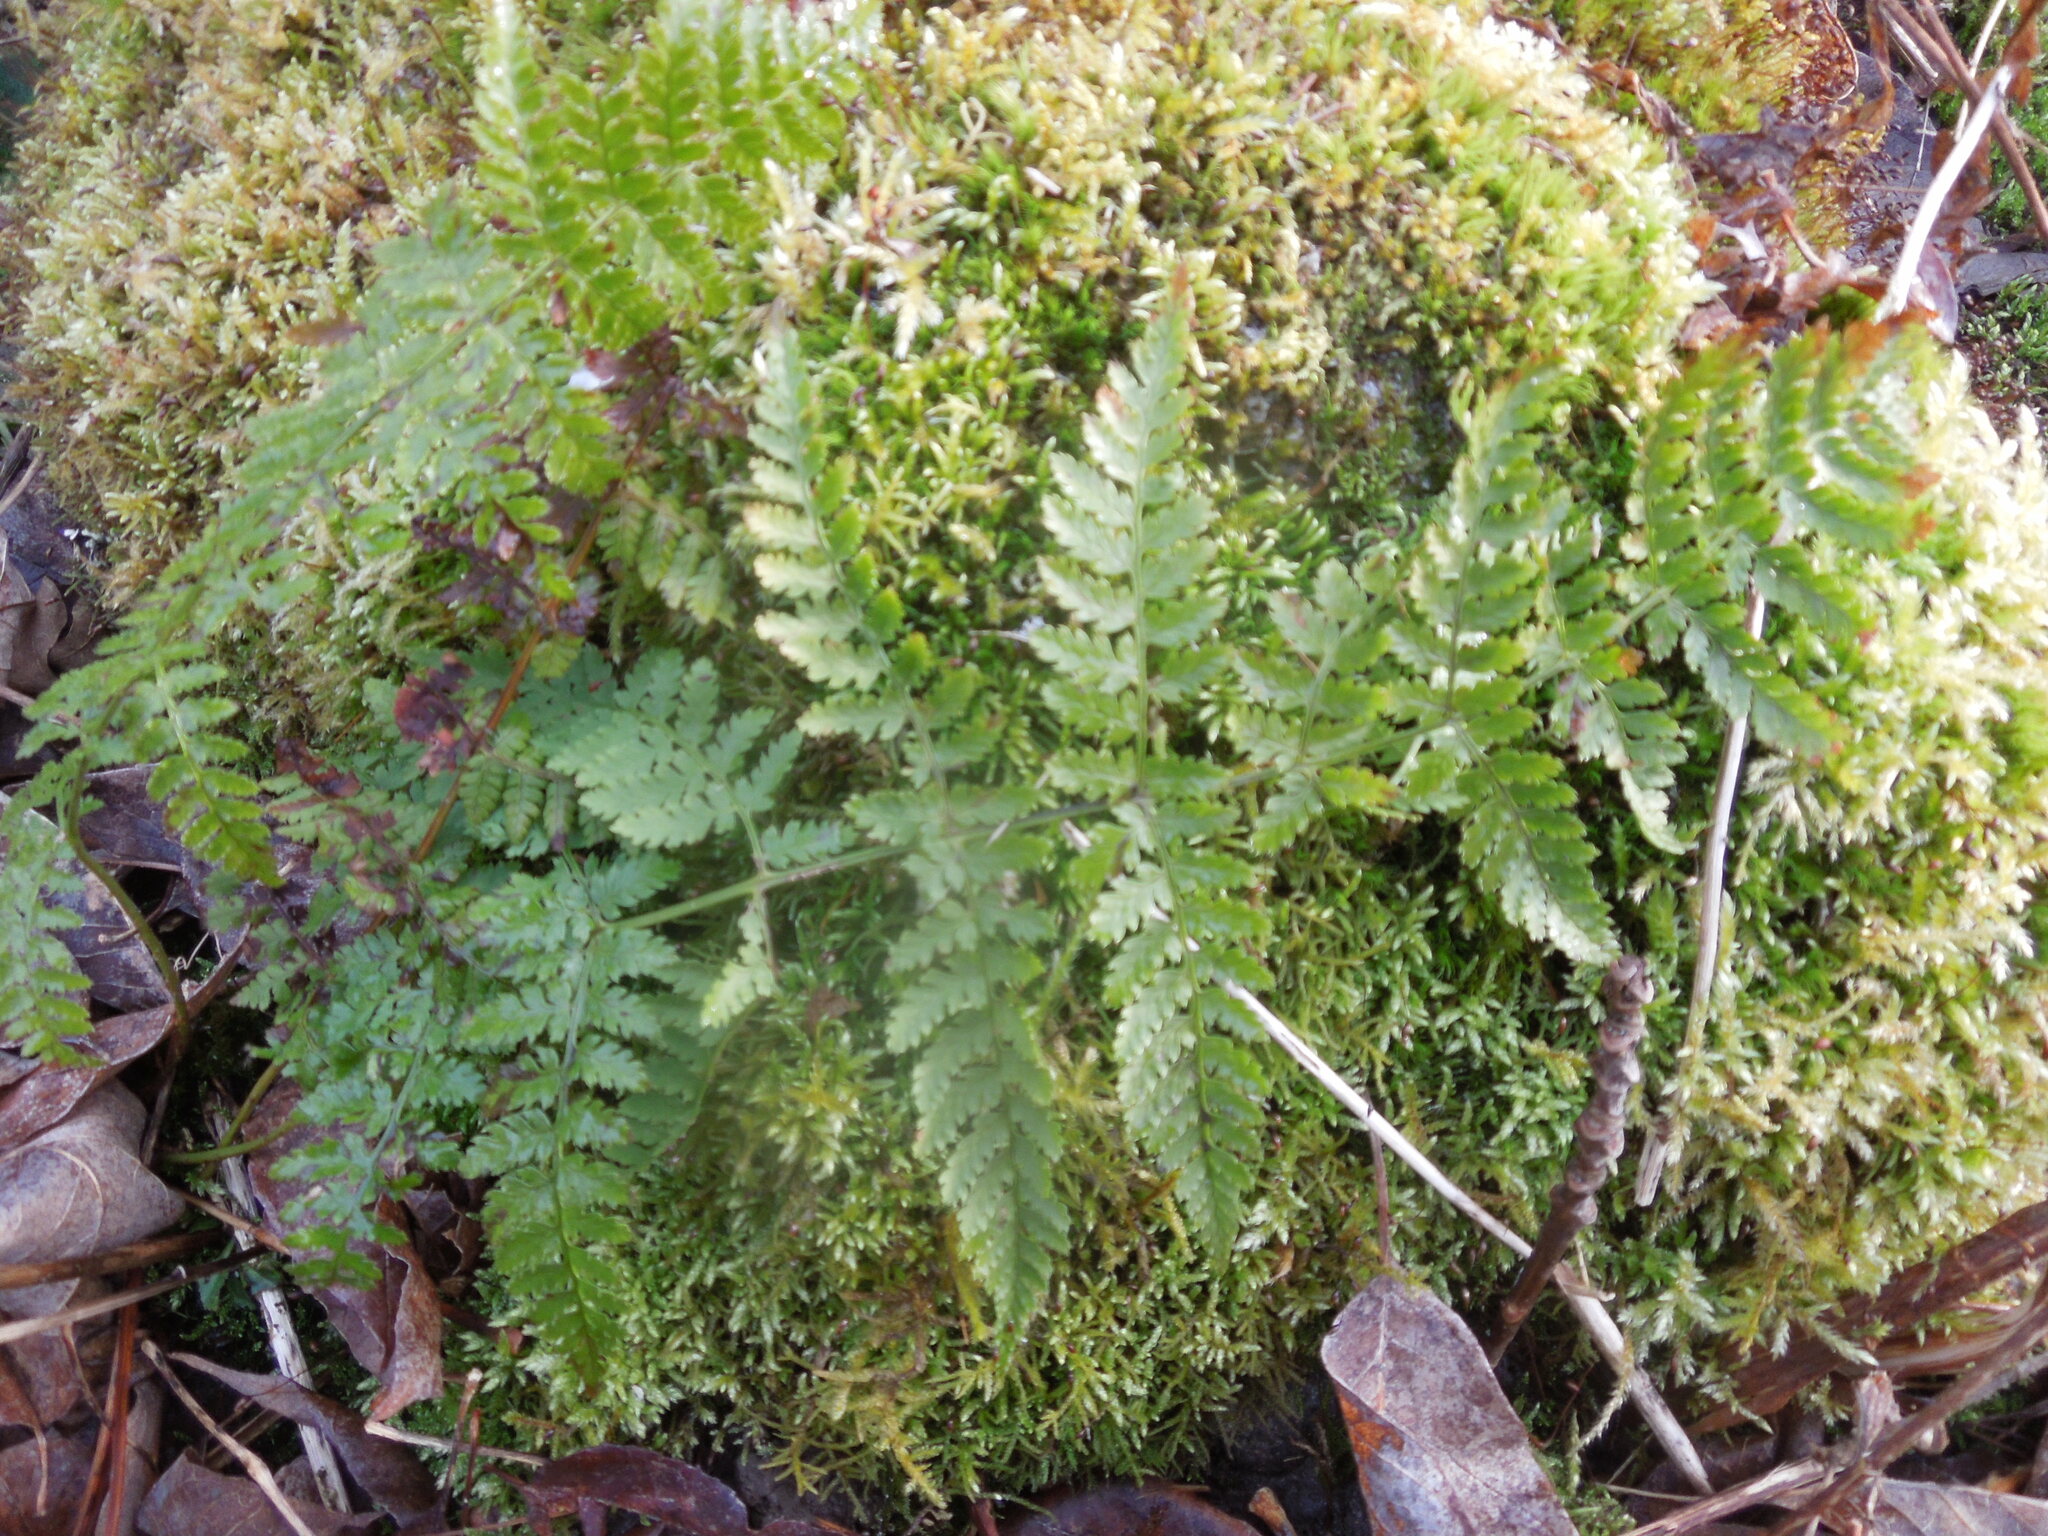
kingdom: Plantae
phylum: Tracheophyta
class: Polypodiopsida
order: Polypodiales
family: Dryopteridaceae
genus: Dryopteris
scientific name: Dryopteris intermedia
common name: Evergreen wood fern
